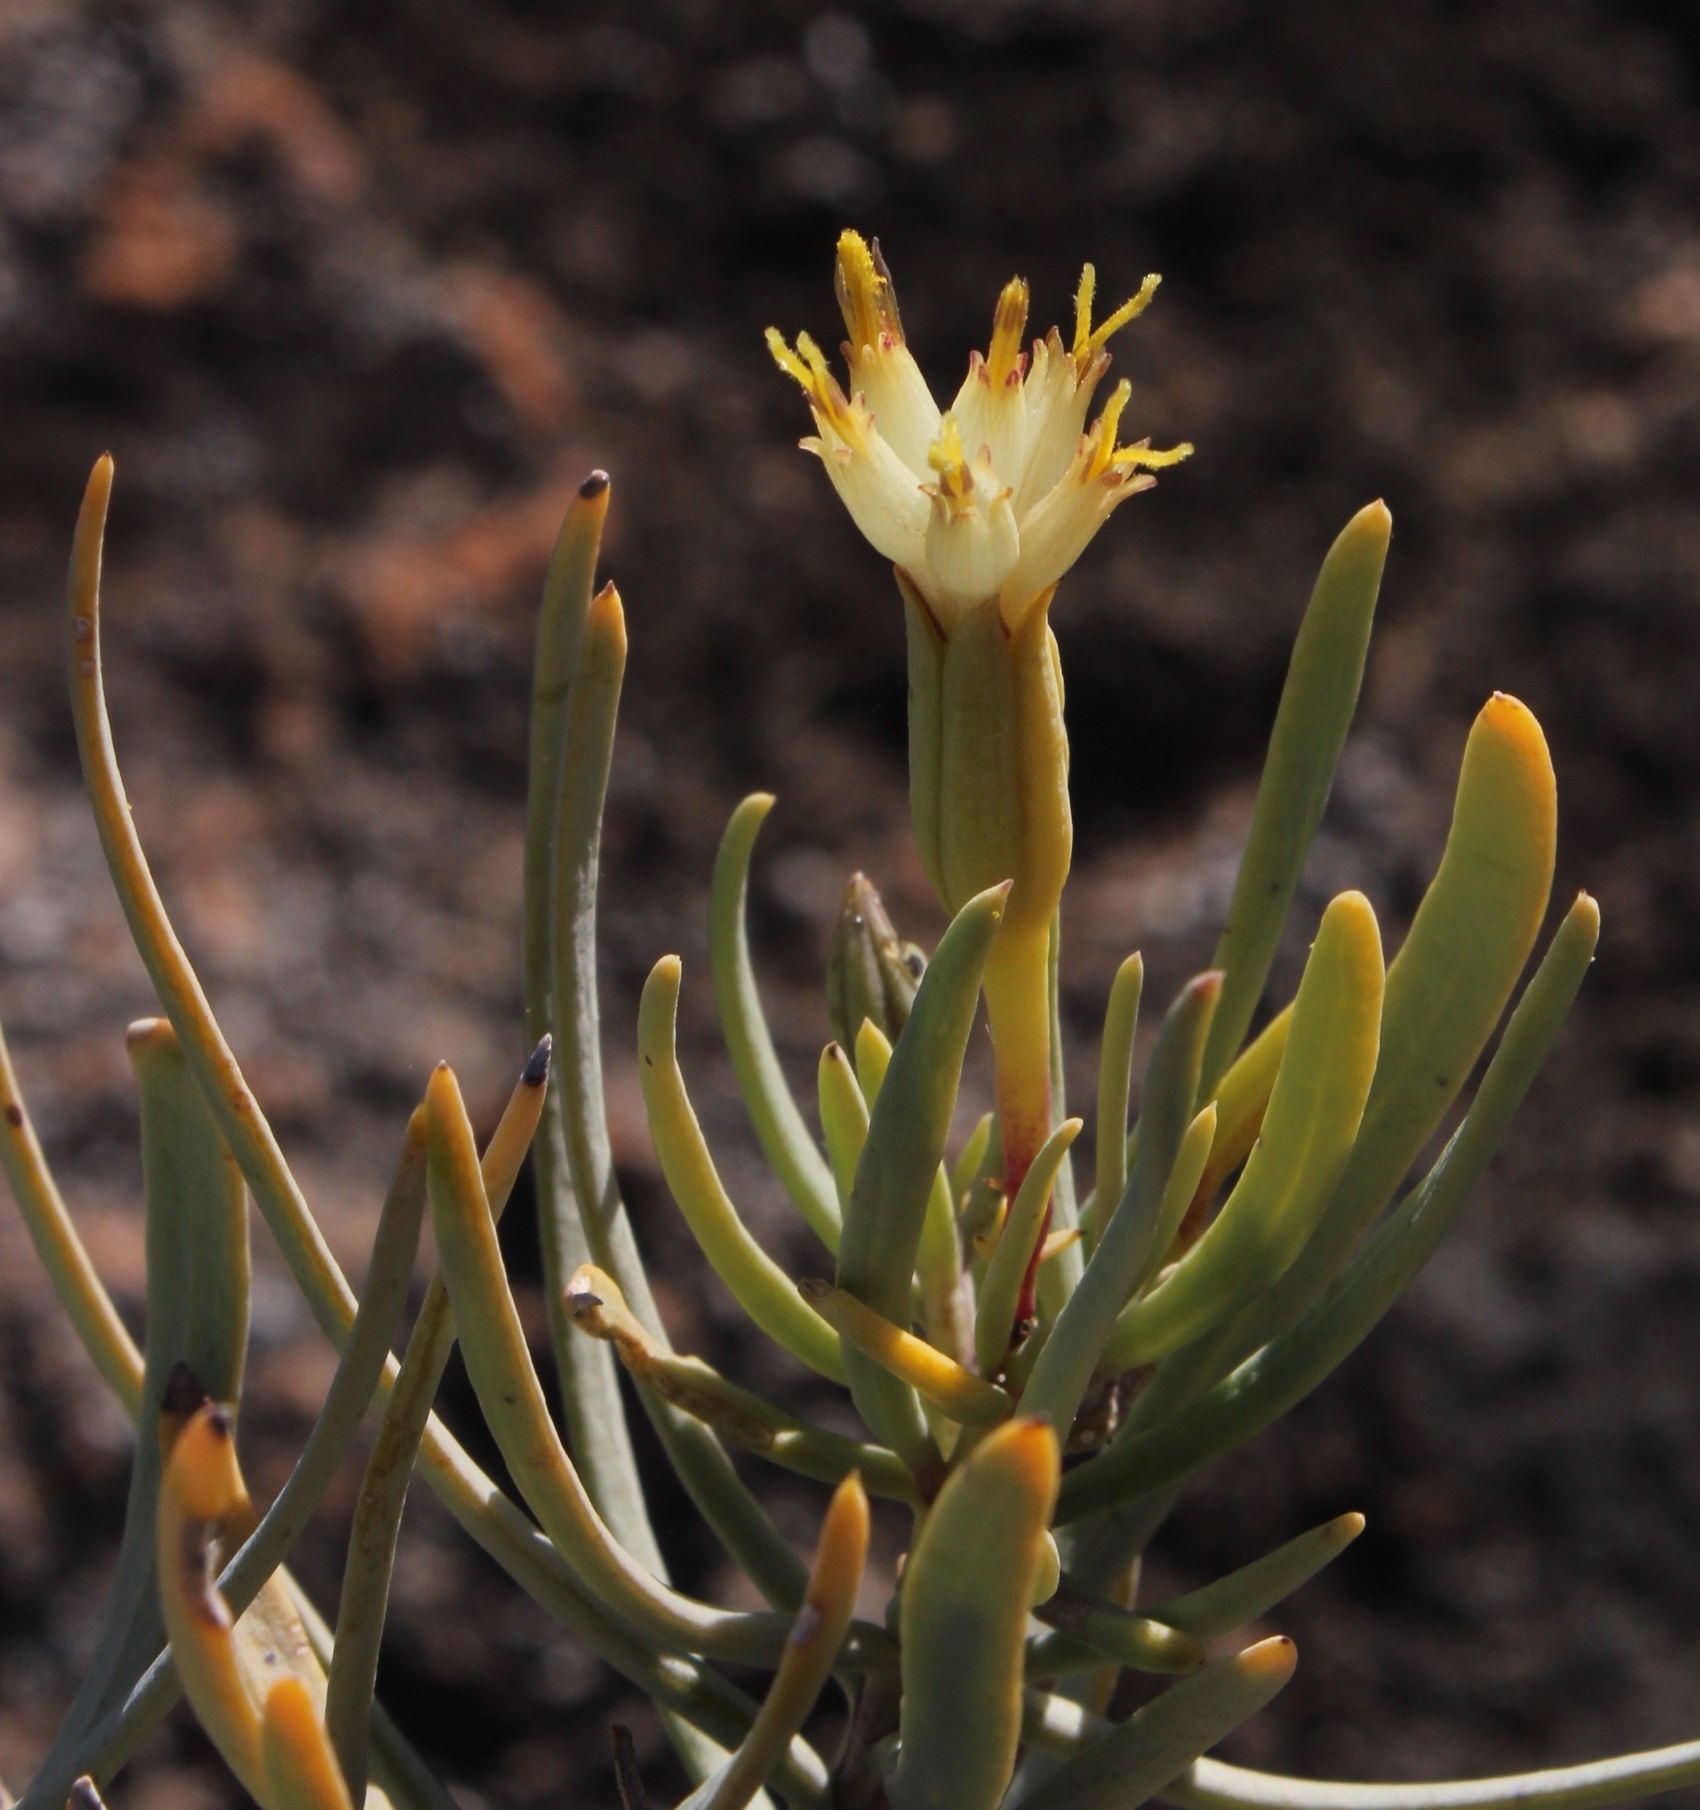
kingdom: Plantae
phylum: Tracheophyta
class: Magnoliopsida
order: Asterales
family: Asteraceae
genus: Lopholaena
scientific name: Lopholaena cneorifolia
